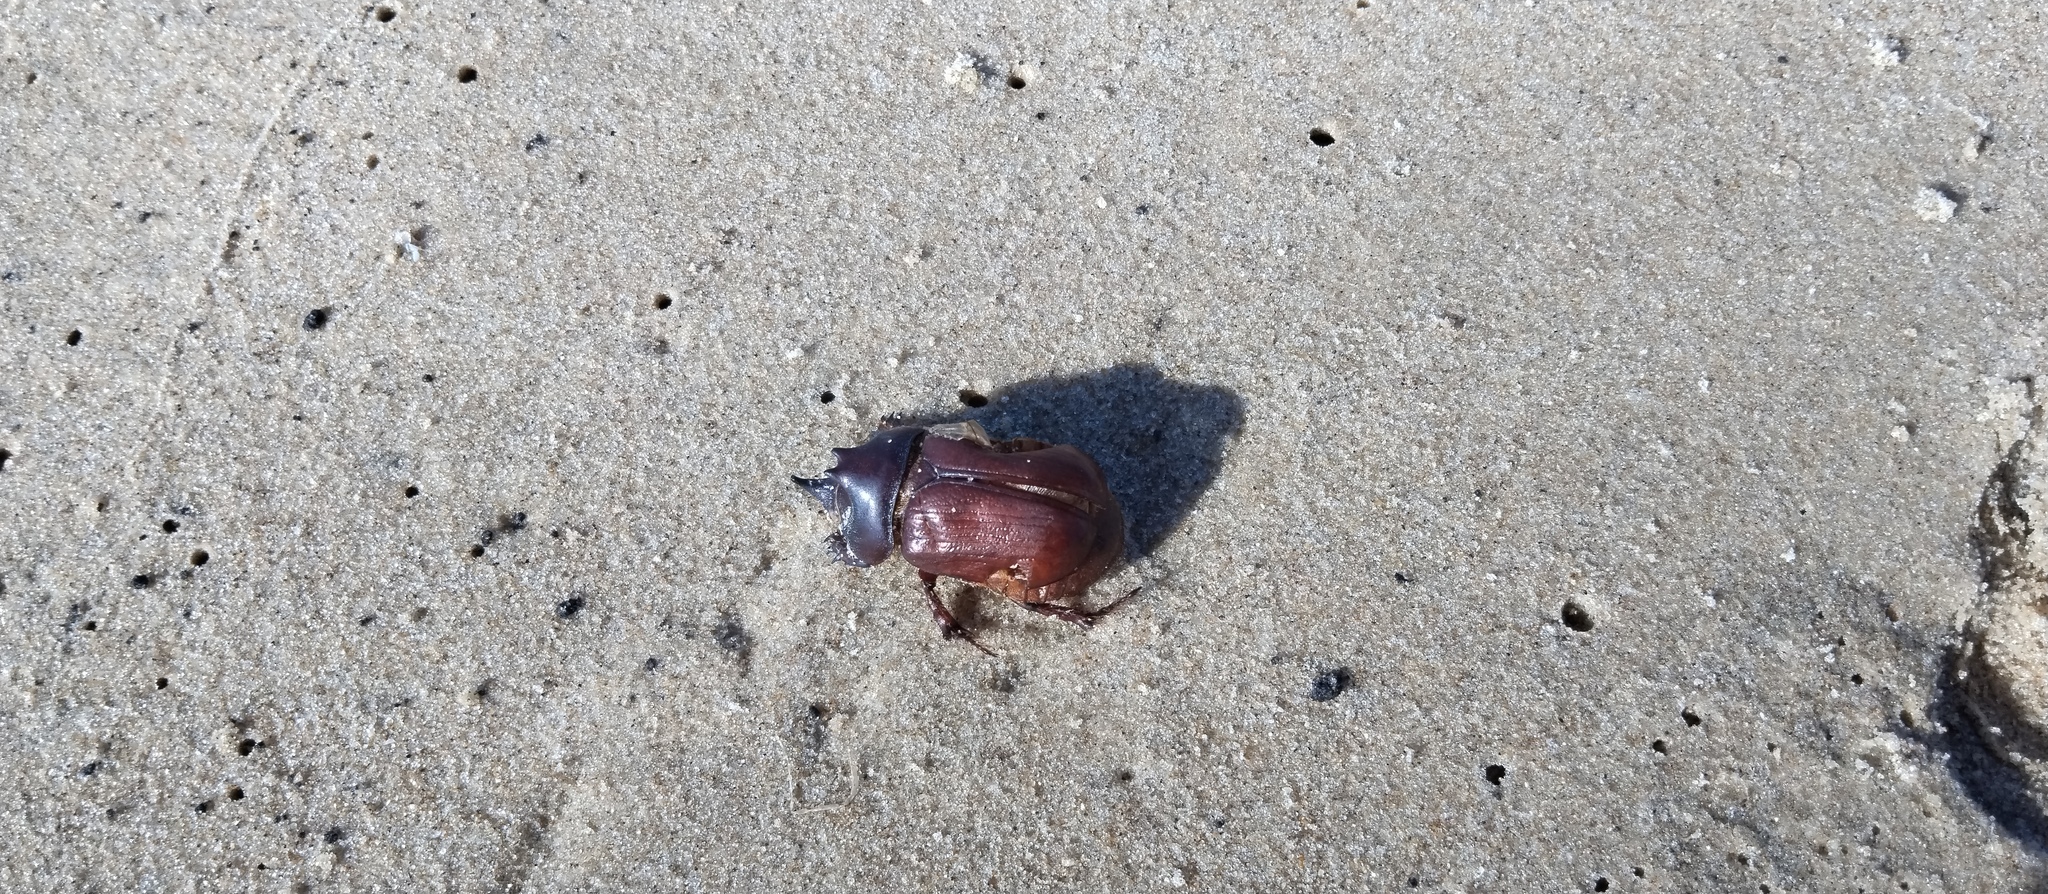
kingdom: Animalia
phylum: Arthropoda
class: Insecta
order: Coleoptera
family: Scarabaeidae
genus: Thronistes
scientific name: Thronistes rouxi
